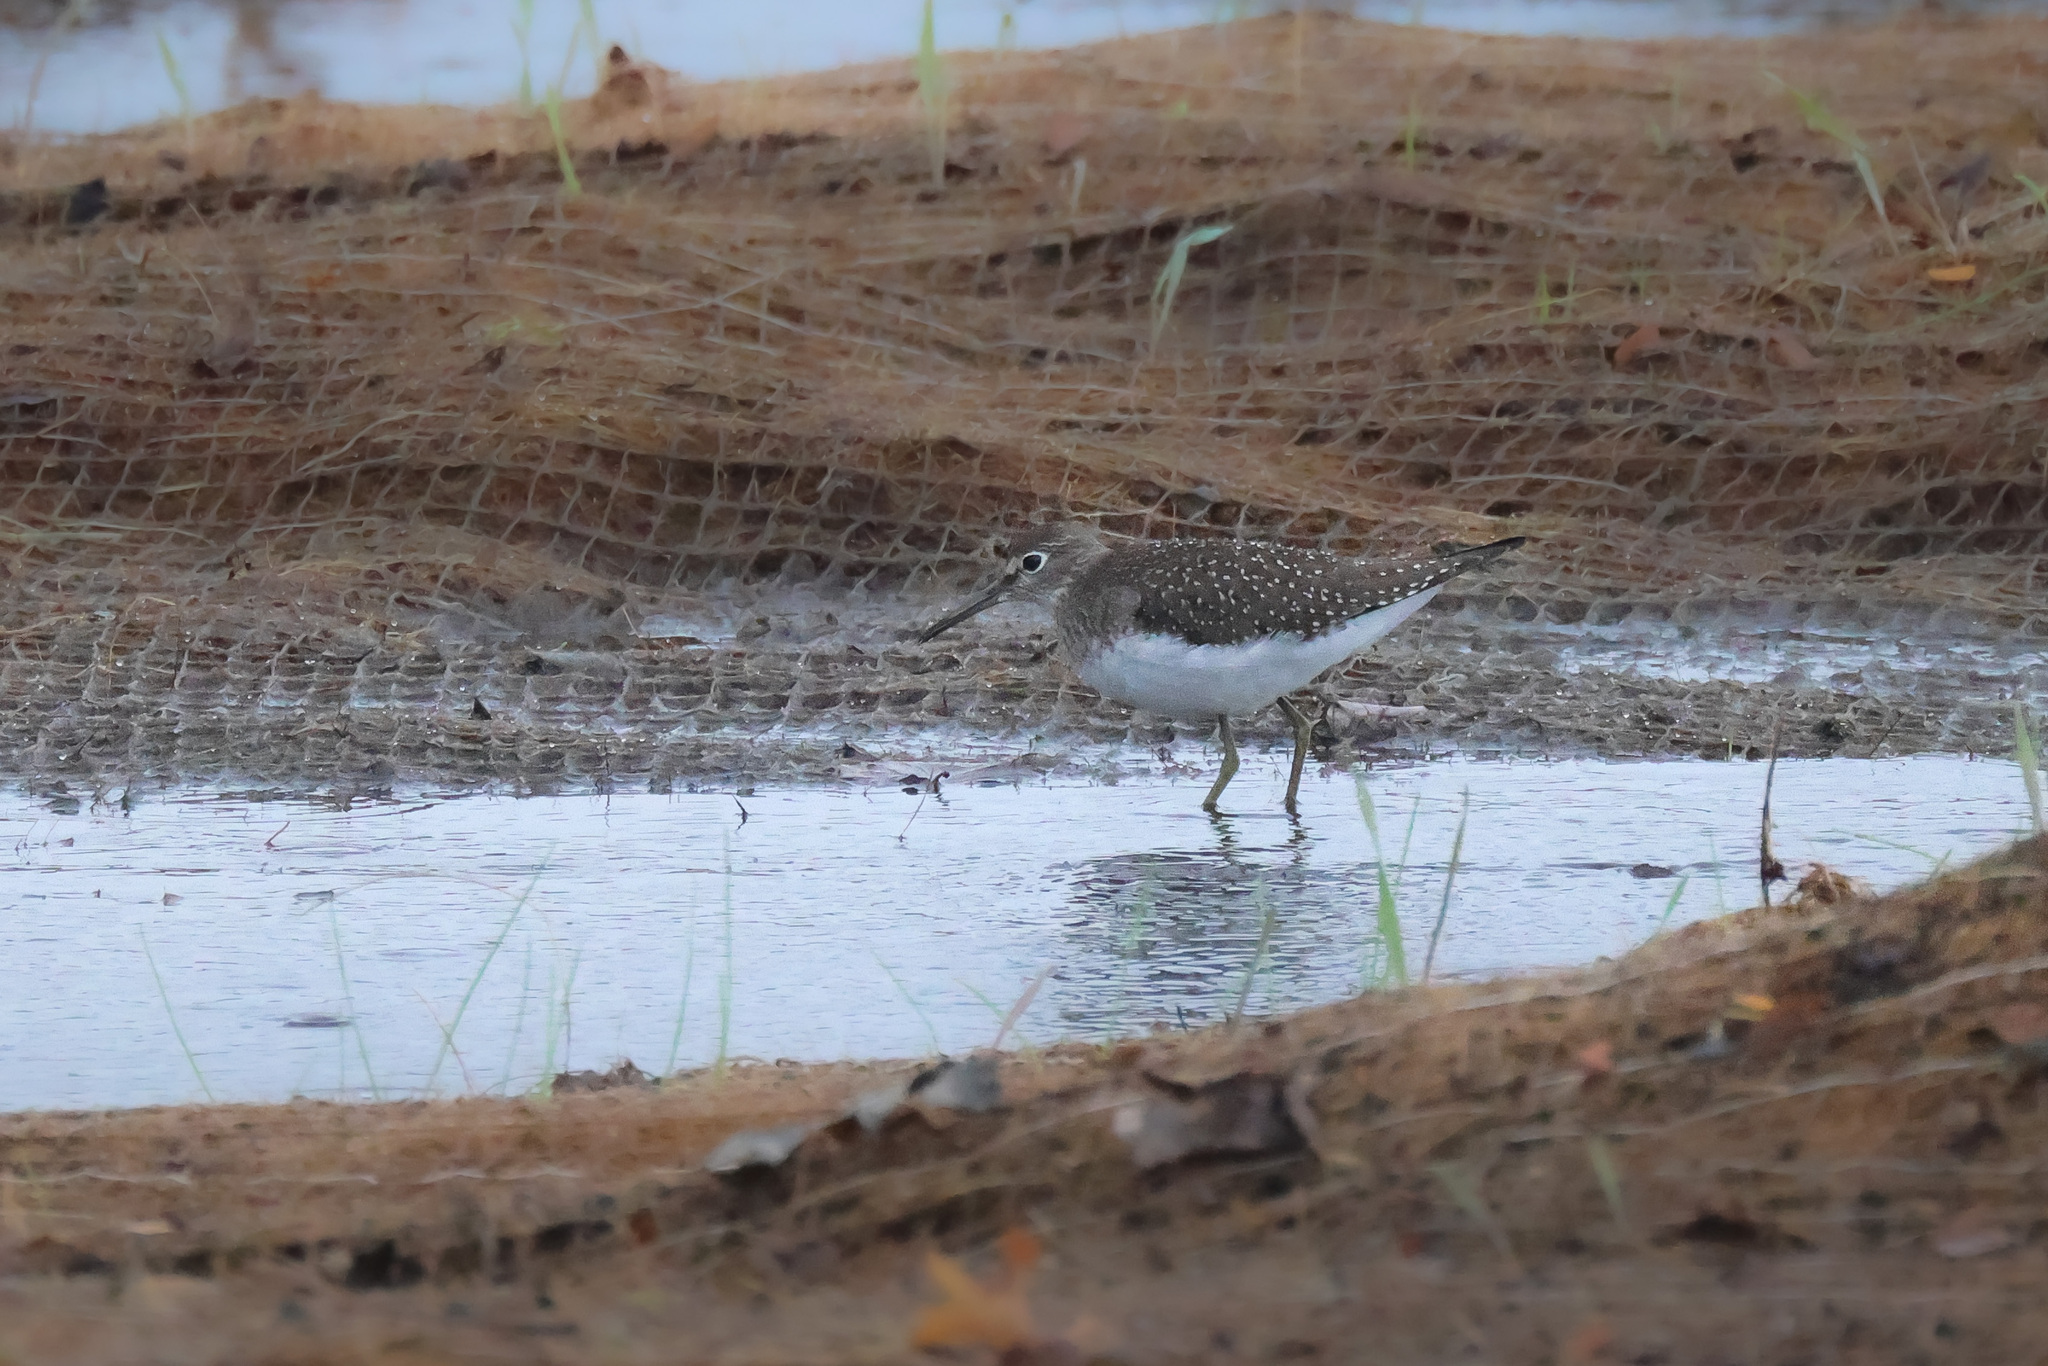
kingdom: Animalia
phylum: Chordata
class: Aves
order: Charadriiformes
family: Scolopacidae
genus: Tringa
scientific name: Tringa solitaria
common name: Solitary sandpiper
